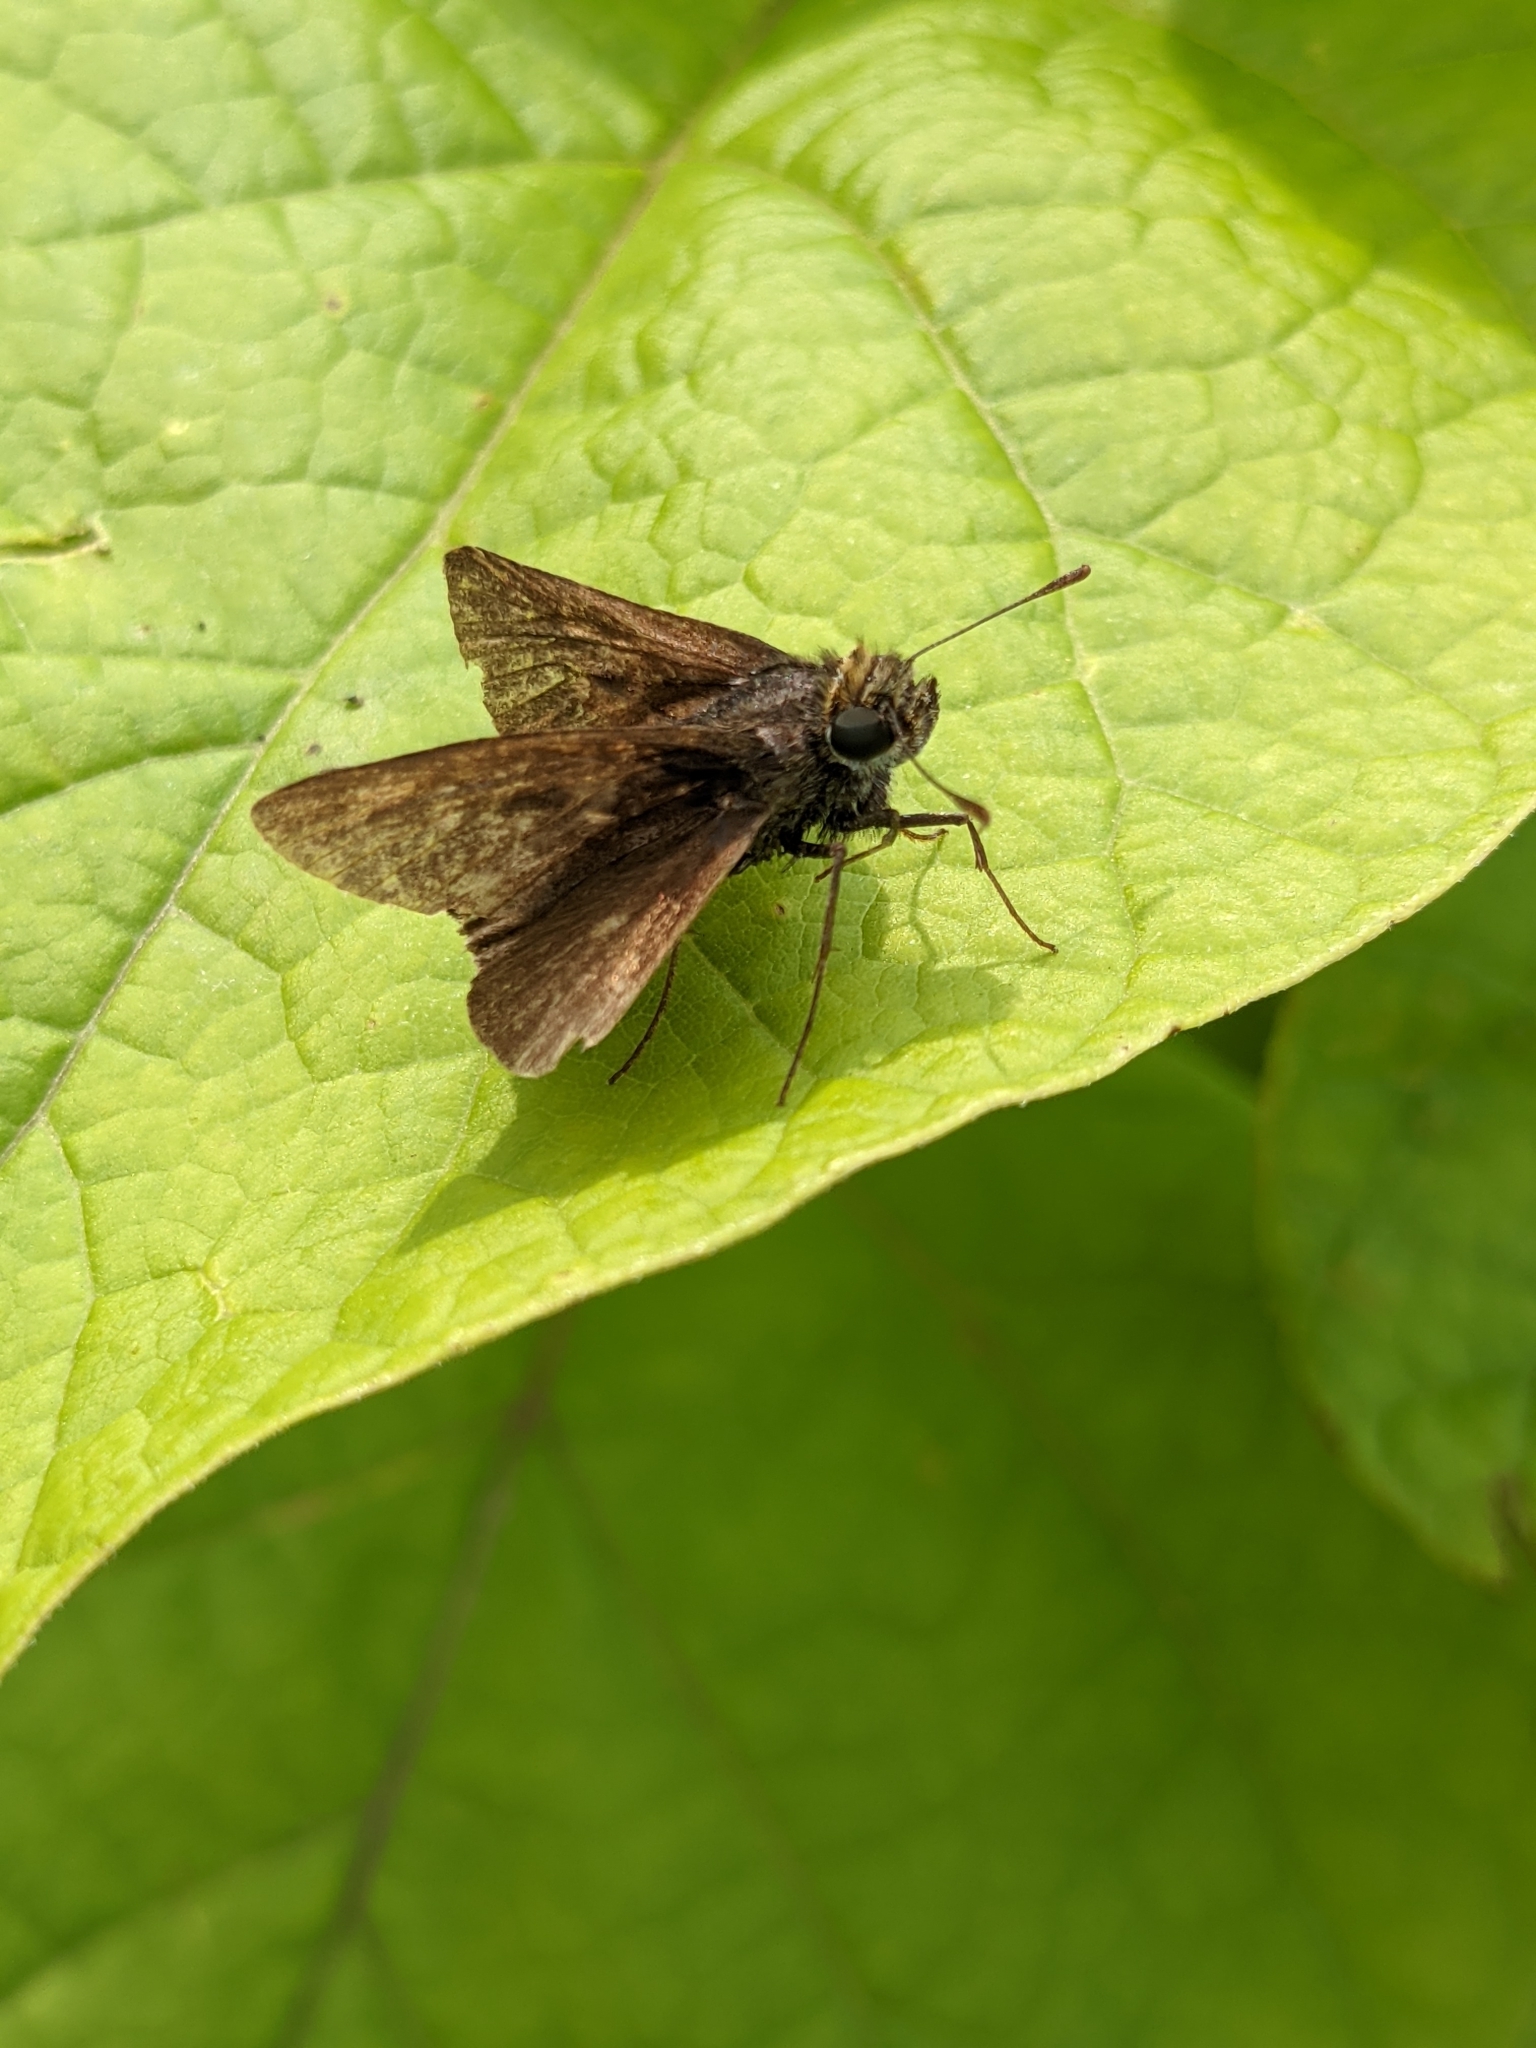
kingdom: Animalia
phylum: Arthropoda
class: Insecta
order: Lepidoptera
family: Hesperiidae
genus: Euphyes
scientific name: Euphyes vestris
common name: Dun skipper
